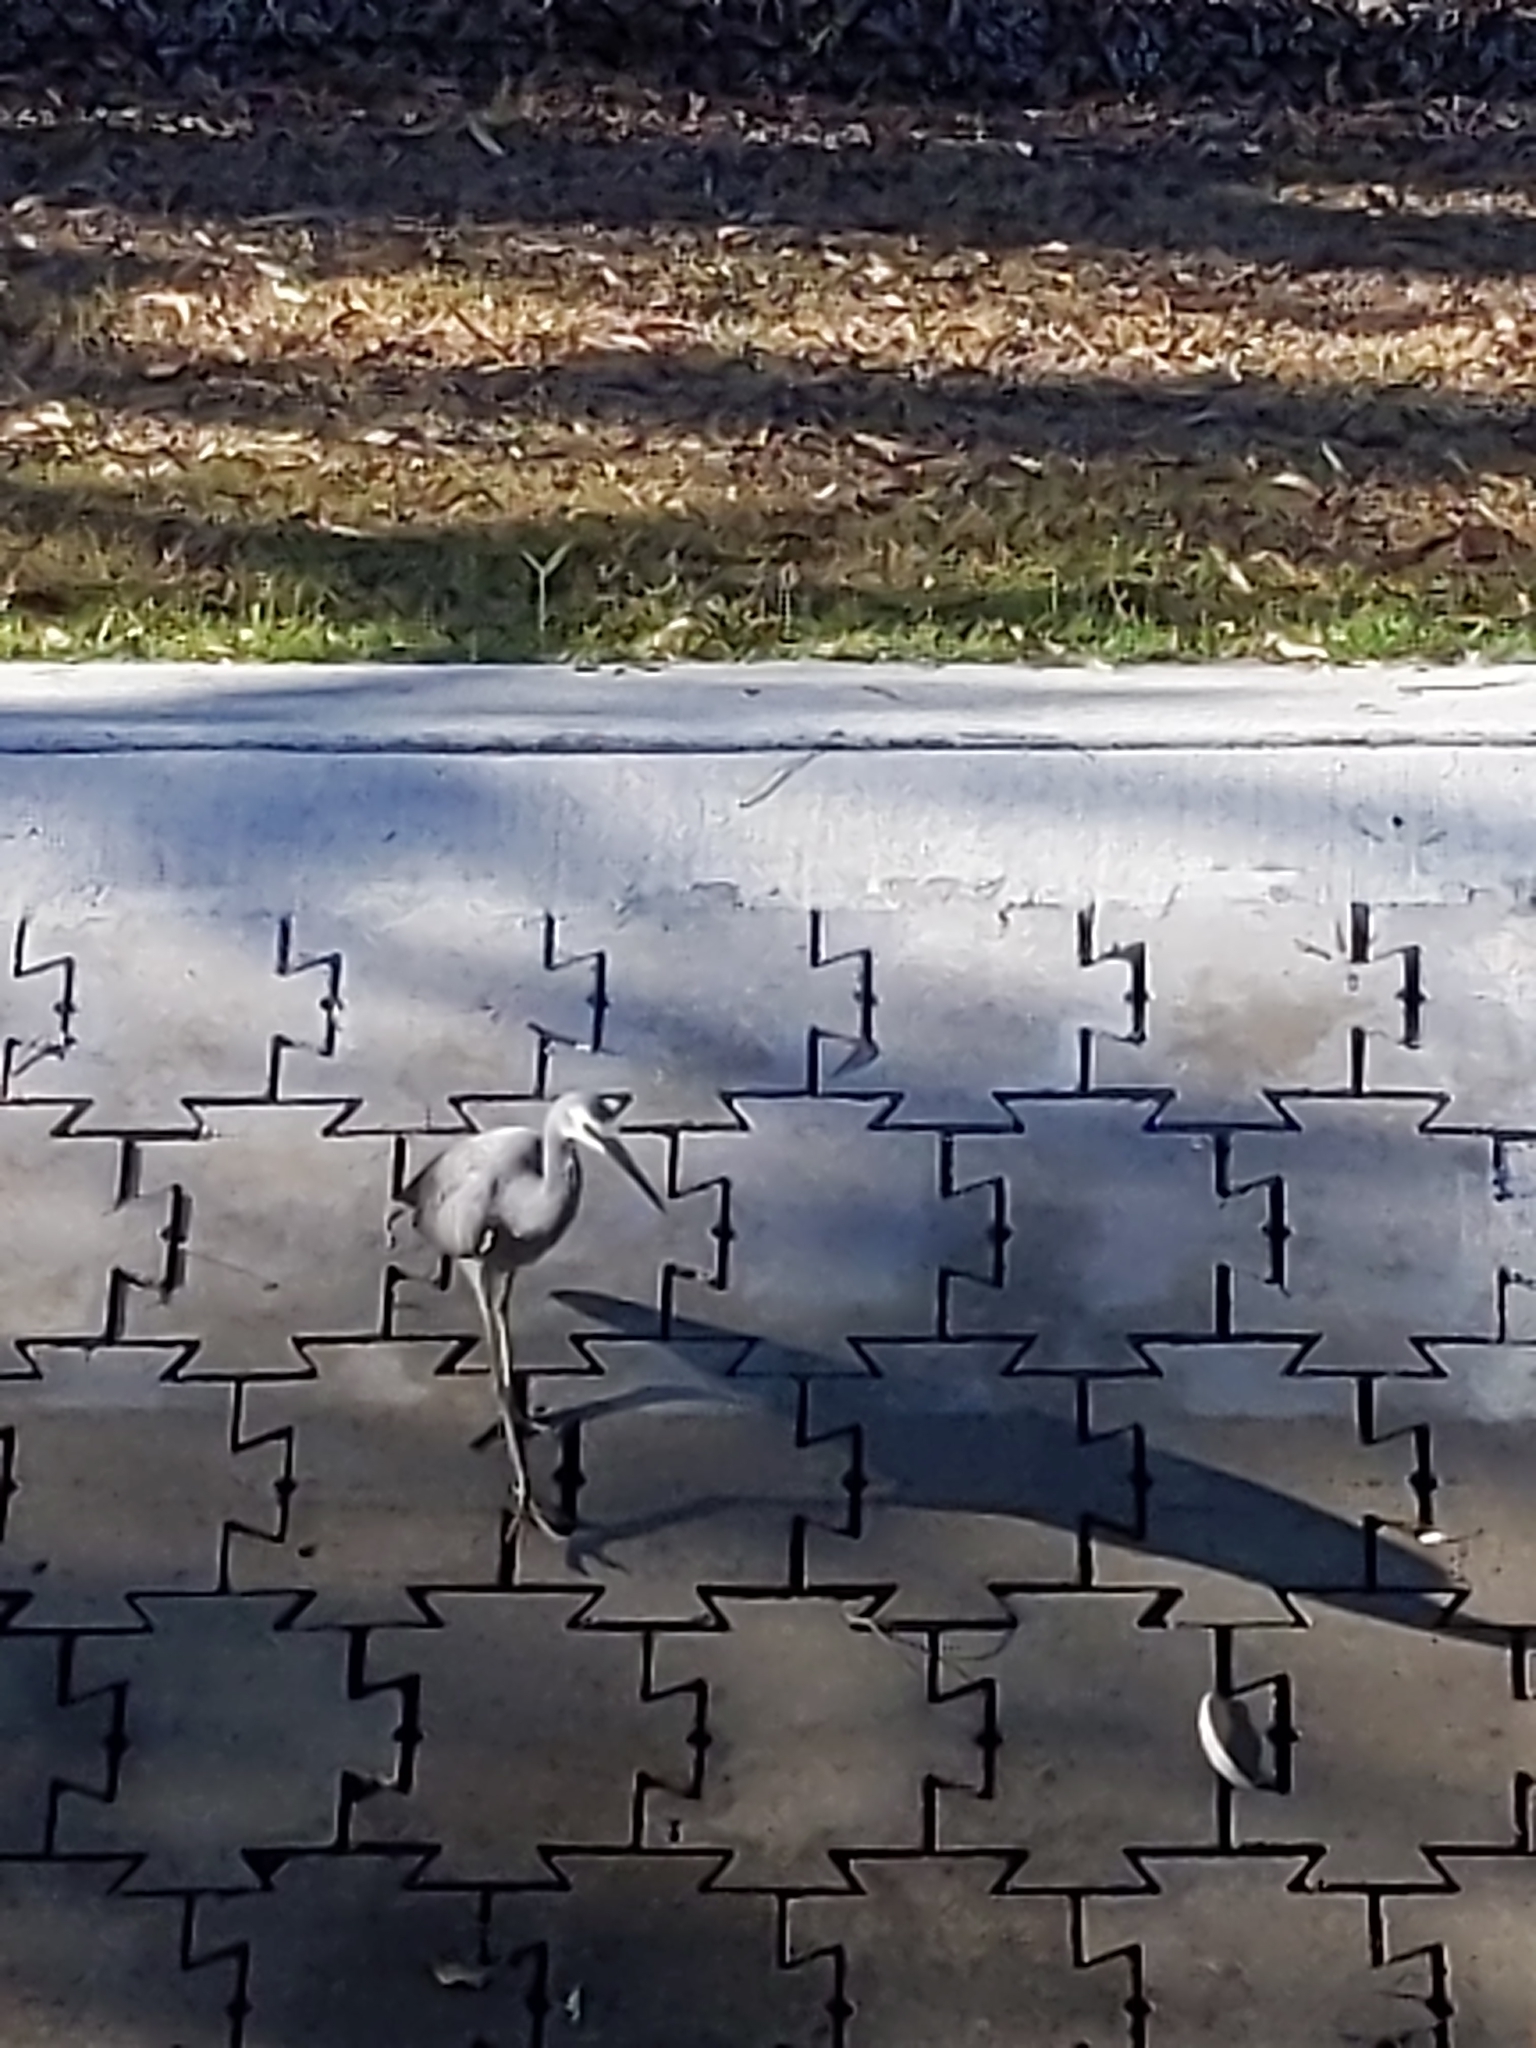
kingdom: Animalia
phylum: Chordata
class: Aves
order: Pelecaniformes
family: Ardeidae
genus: Egretta
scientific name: Egretta novaehollandiae
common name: White-faced heron
